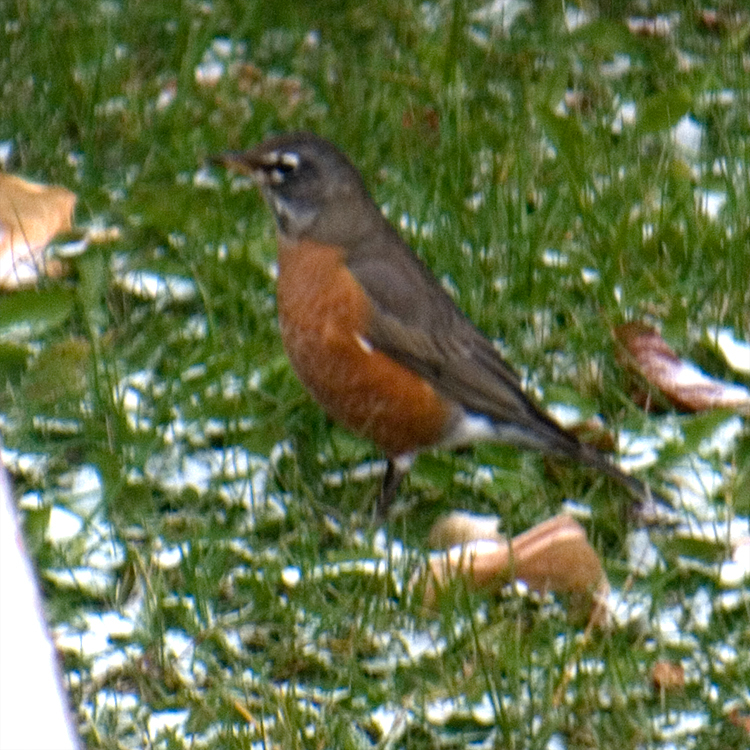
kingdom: Animalia
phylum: Chordata
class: Aves
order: Passeriformes
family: Turdidae
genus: Turdus
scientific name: Turdus migratorius
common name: American robin
